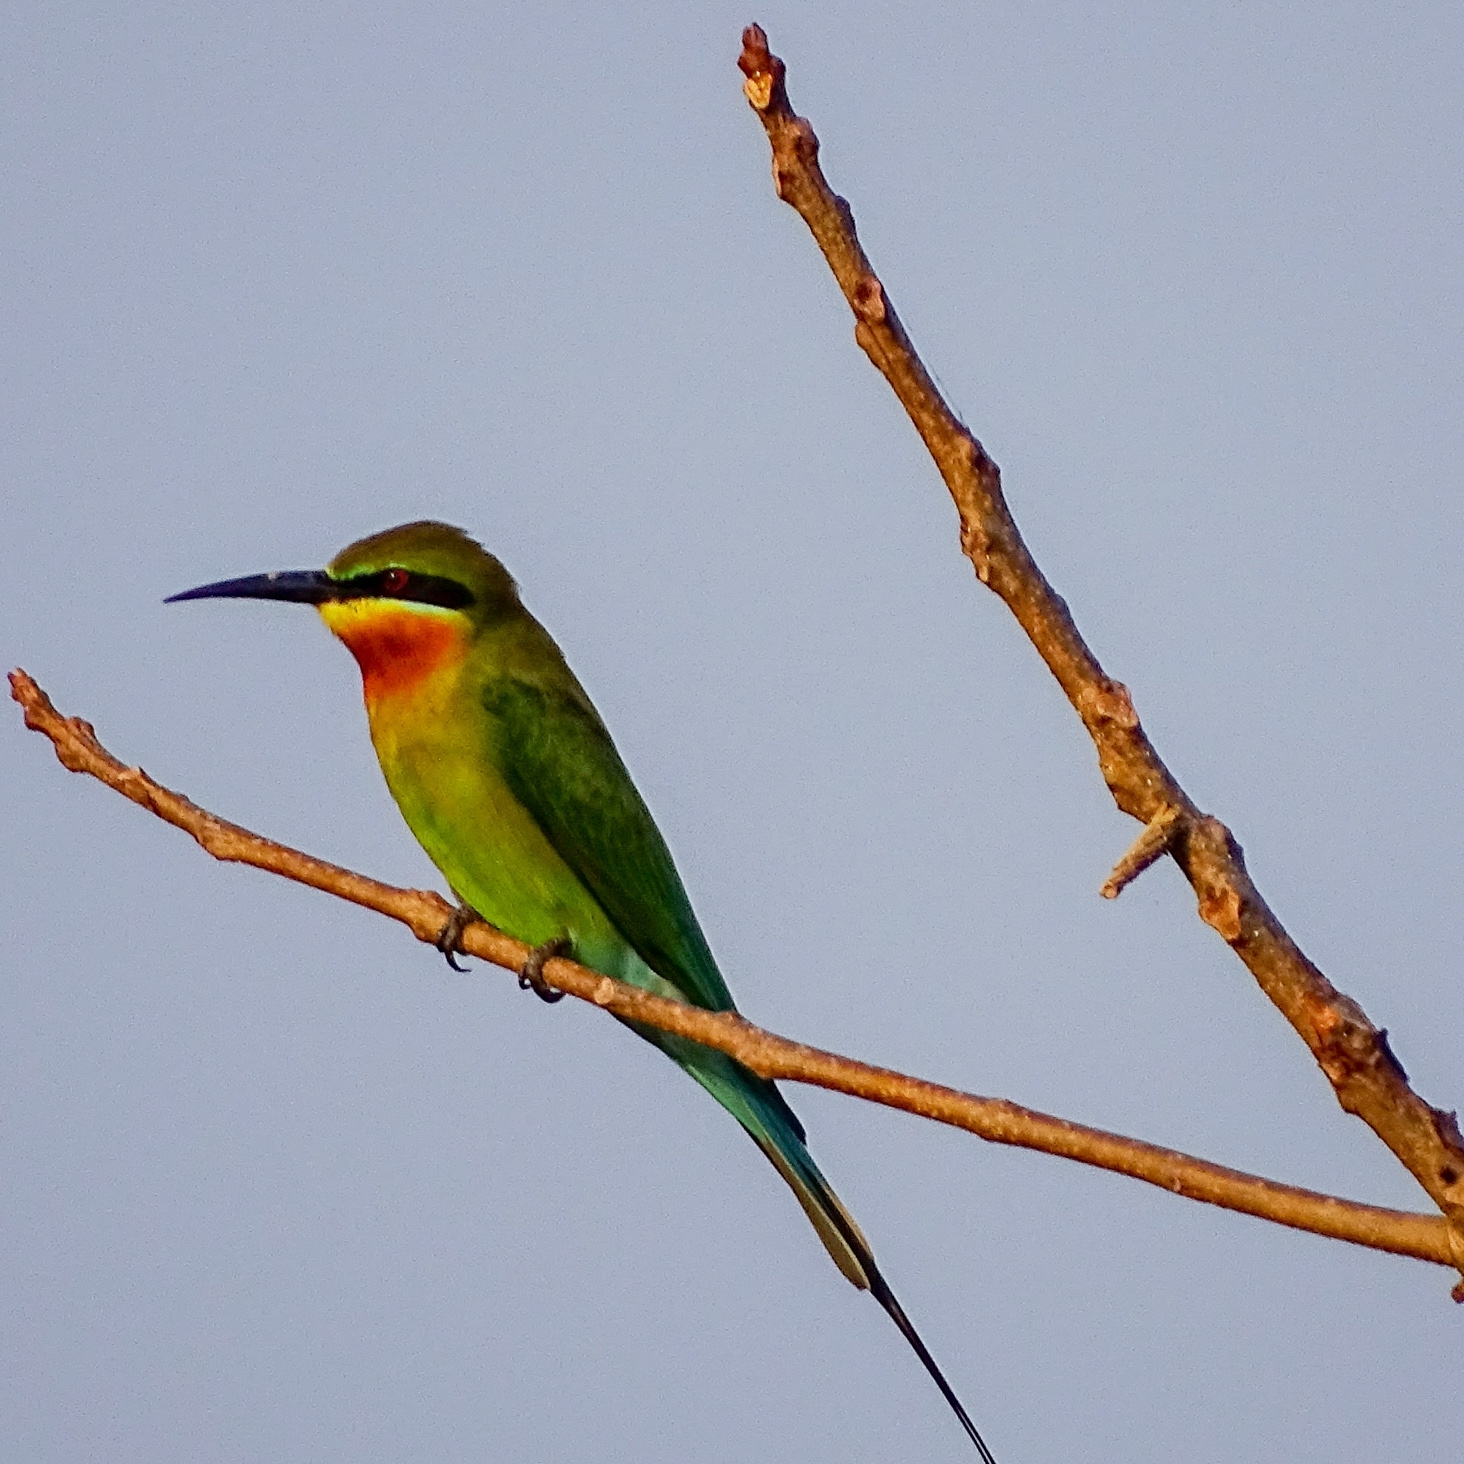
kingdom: Animalia
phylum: Chordata
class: Aves
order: Coraciiformes
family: Meropidae
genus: Merops
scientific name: Merops philippinus
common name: Blue-tailed bee-eater
